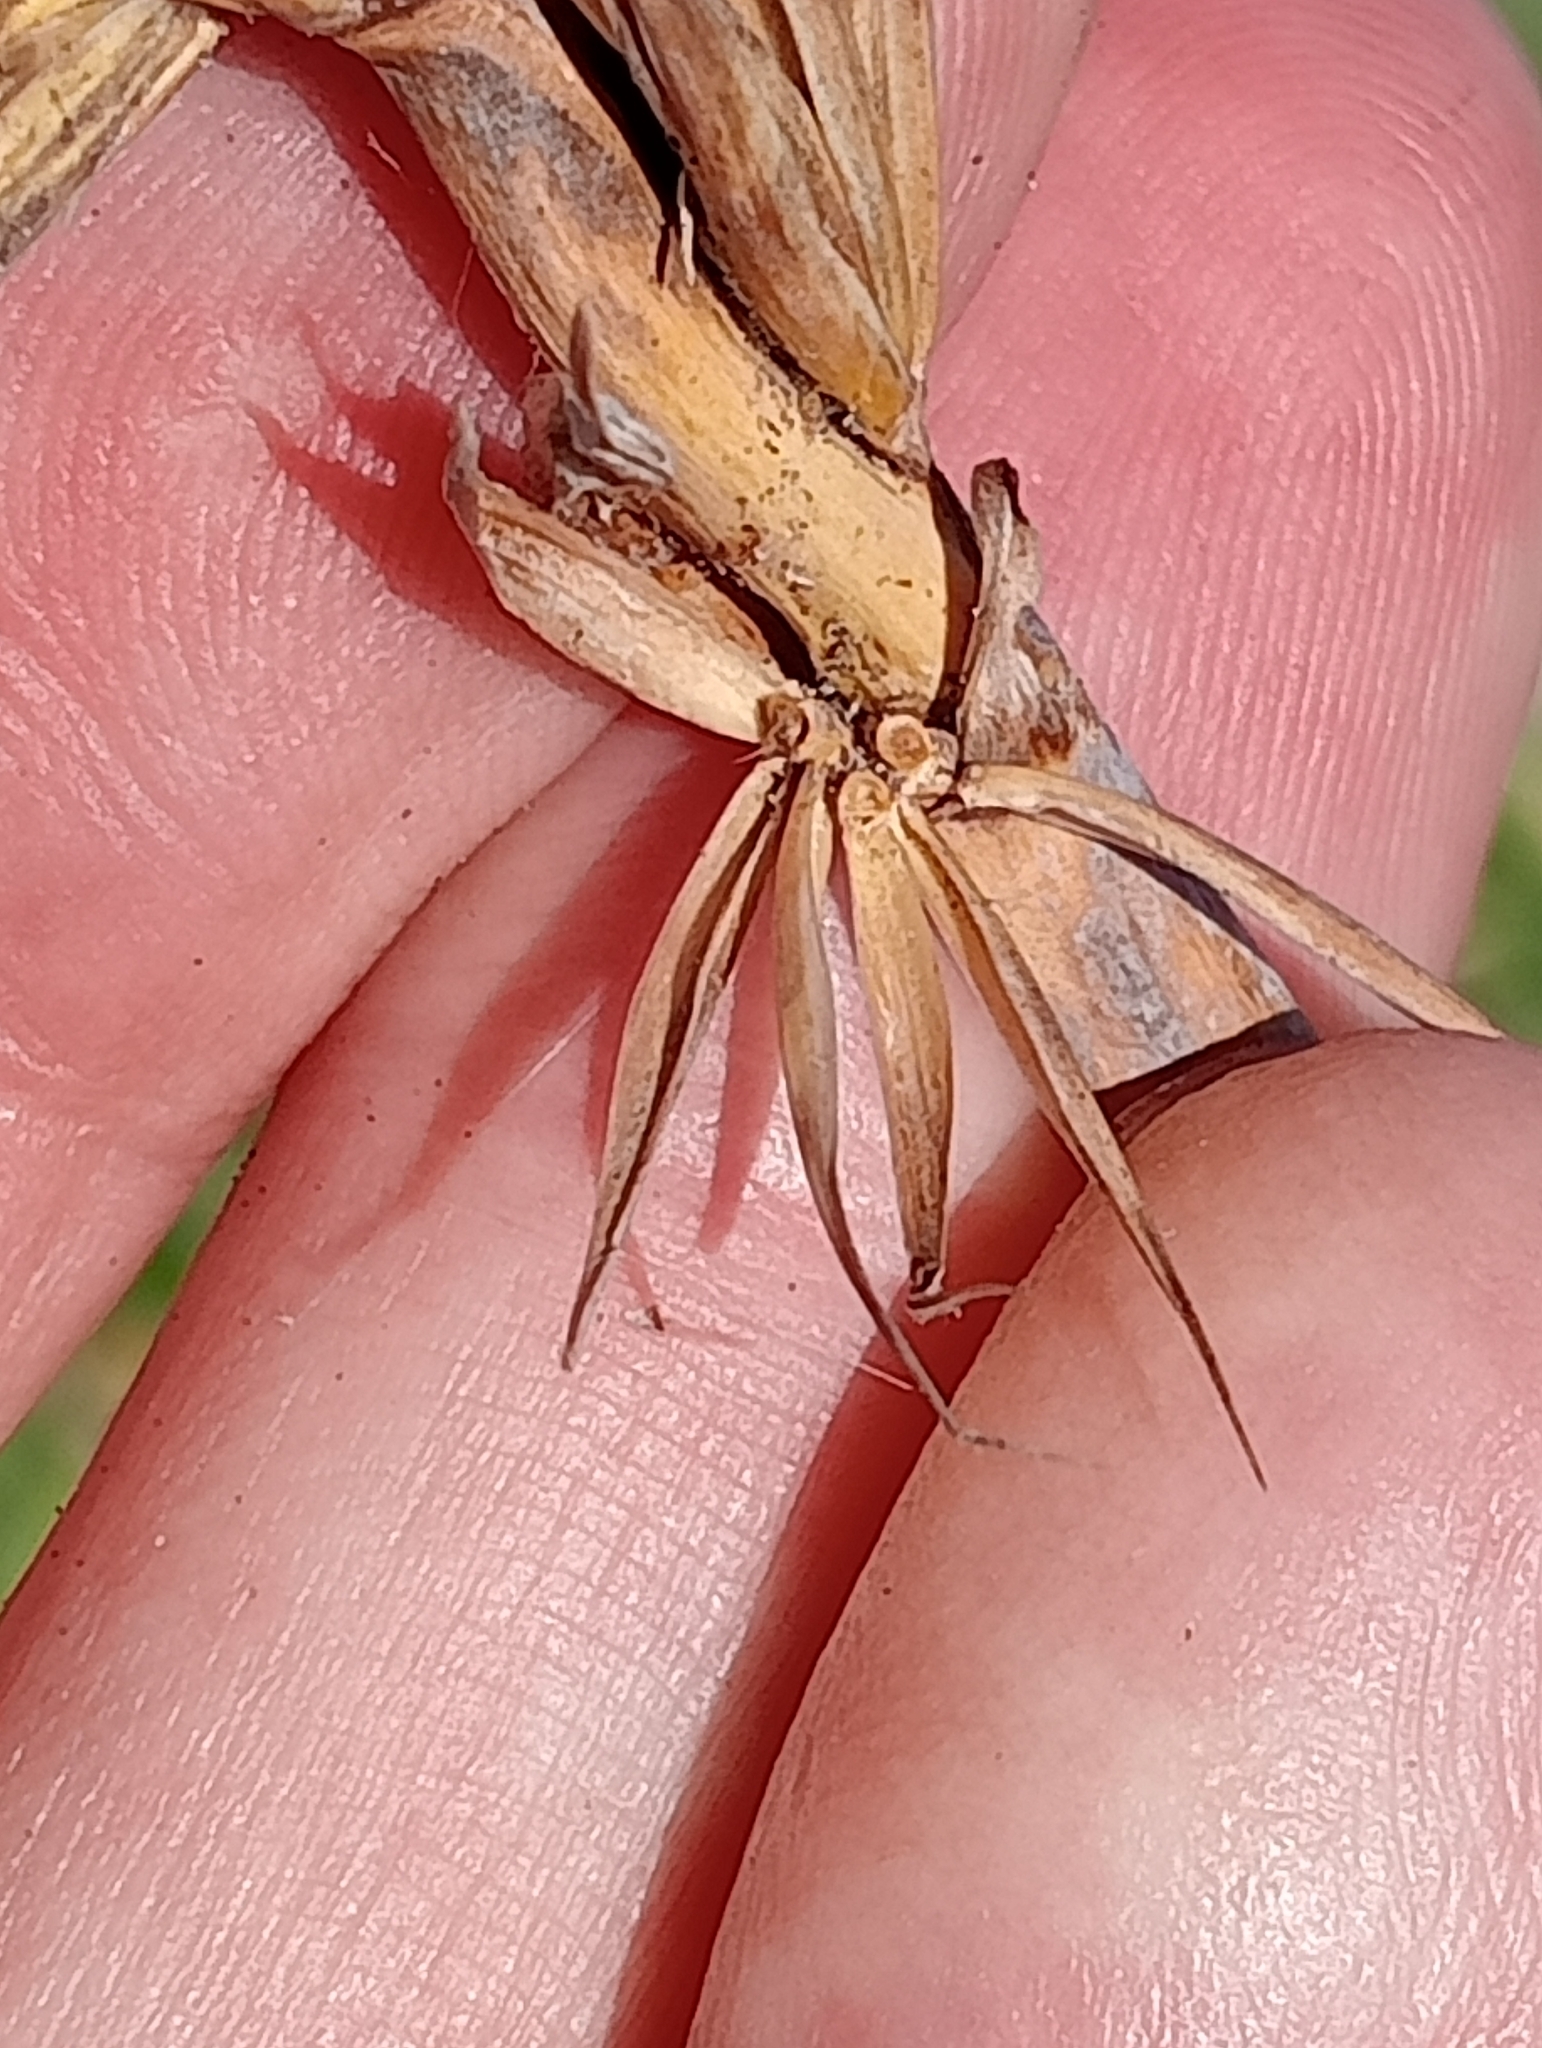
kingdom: Plantae
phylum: Tracheophyta
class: Liliopsida
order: Poales
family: Poaceae
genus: Leymus
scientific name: Leymus racemosus
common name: Mammoth wildrye
